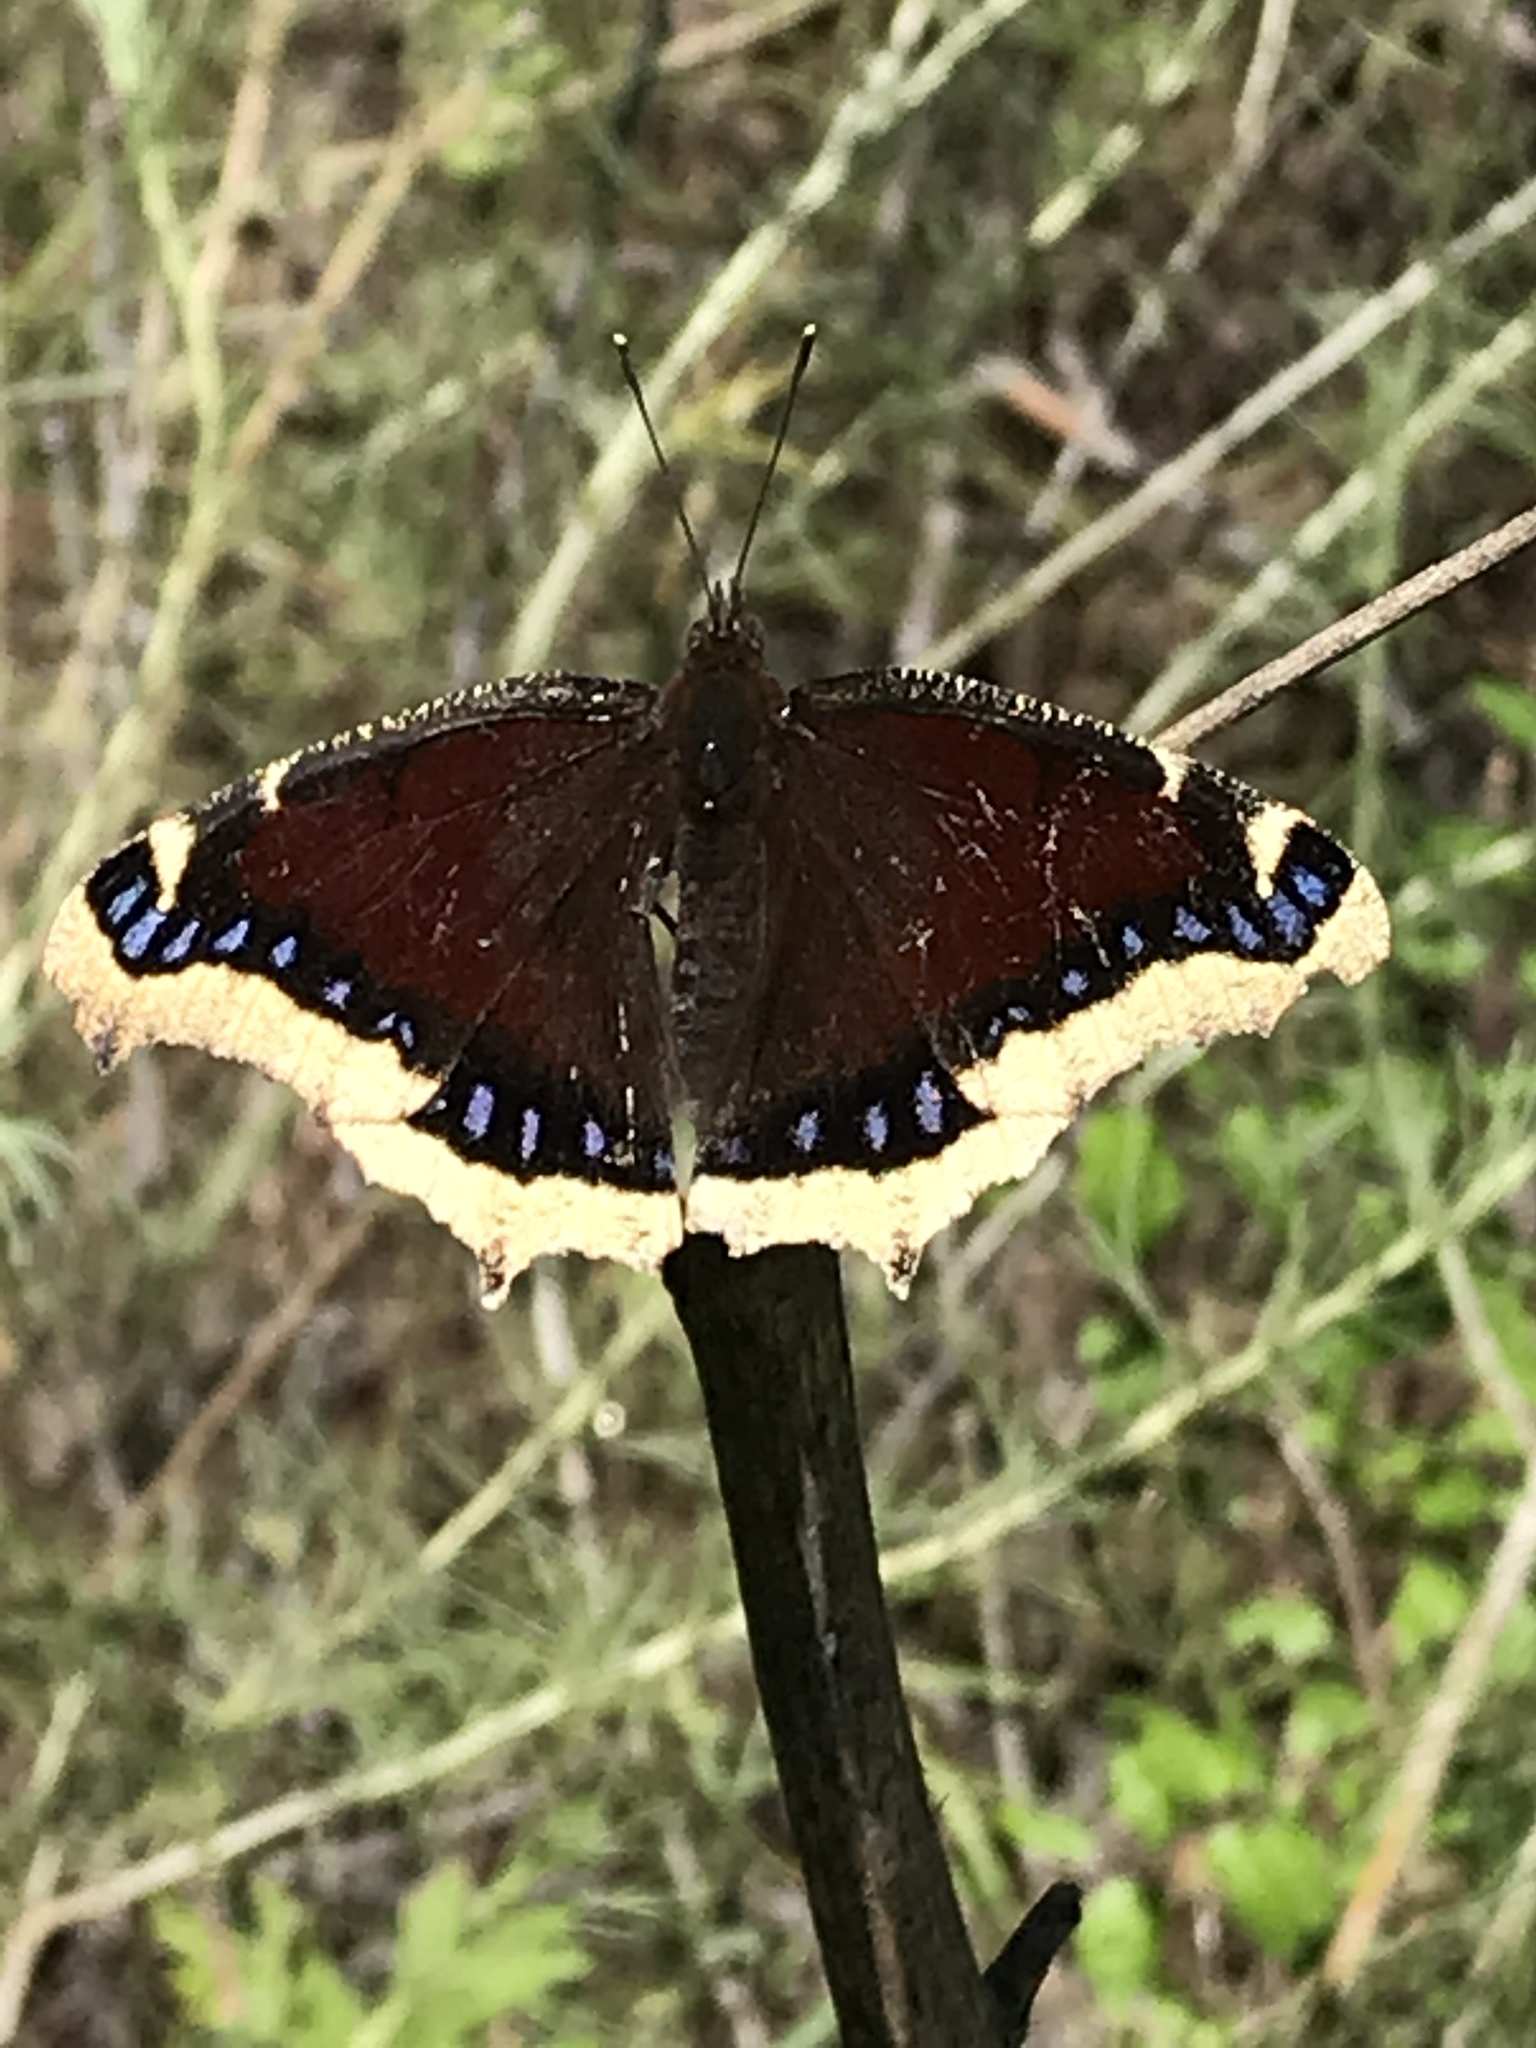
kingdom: Animalia
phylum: Arthropoda
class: Insecta
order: Lepidoptera
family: Nymphalidae
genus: Nymphalis
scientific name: Nymphalis antiopa
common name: Camberwell beauty
